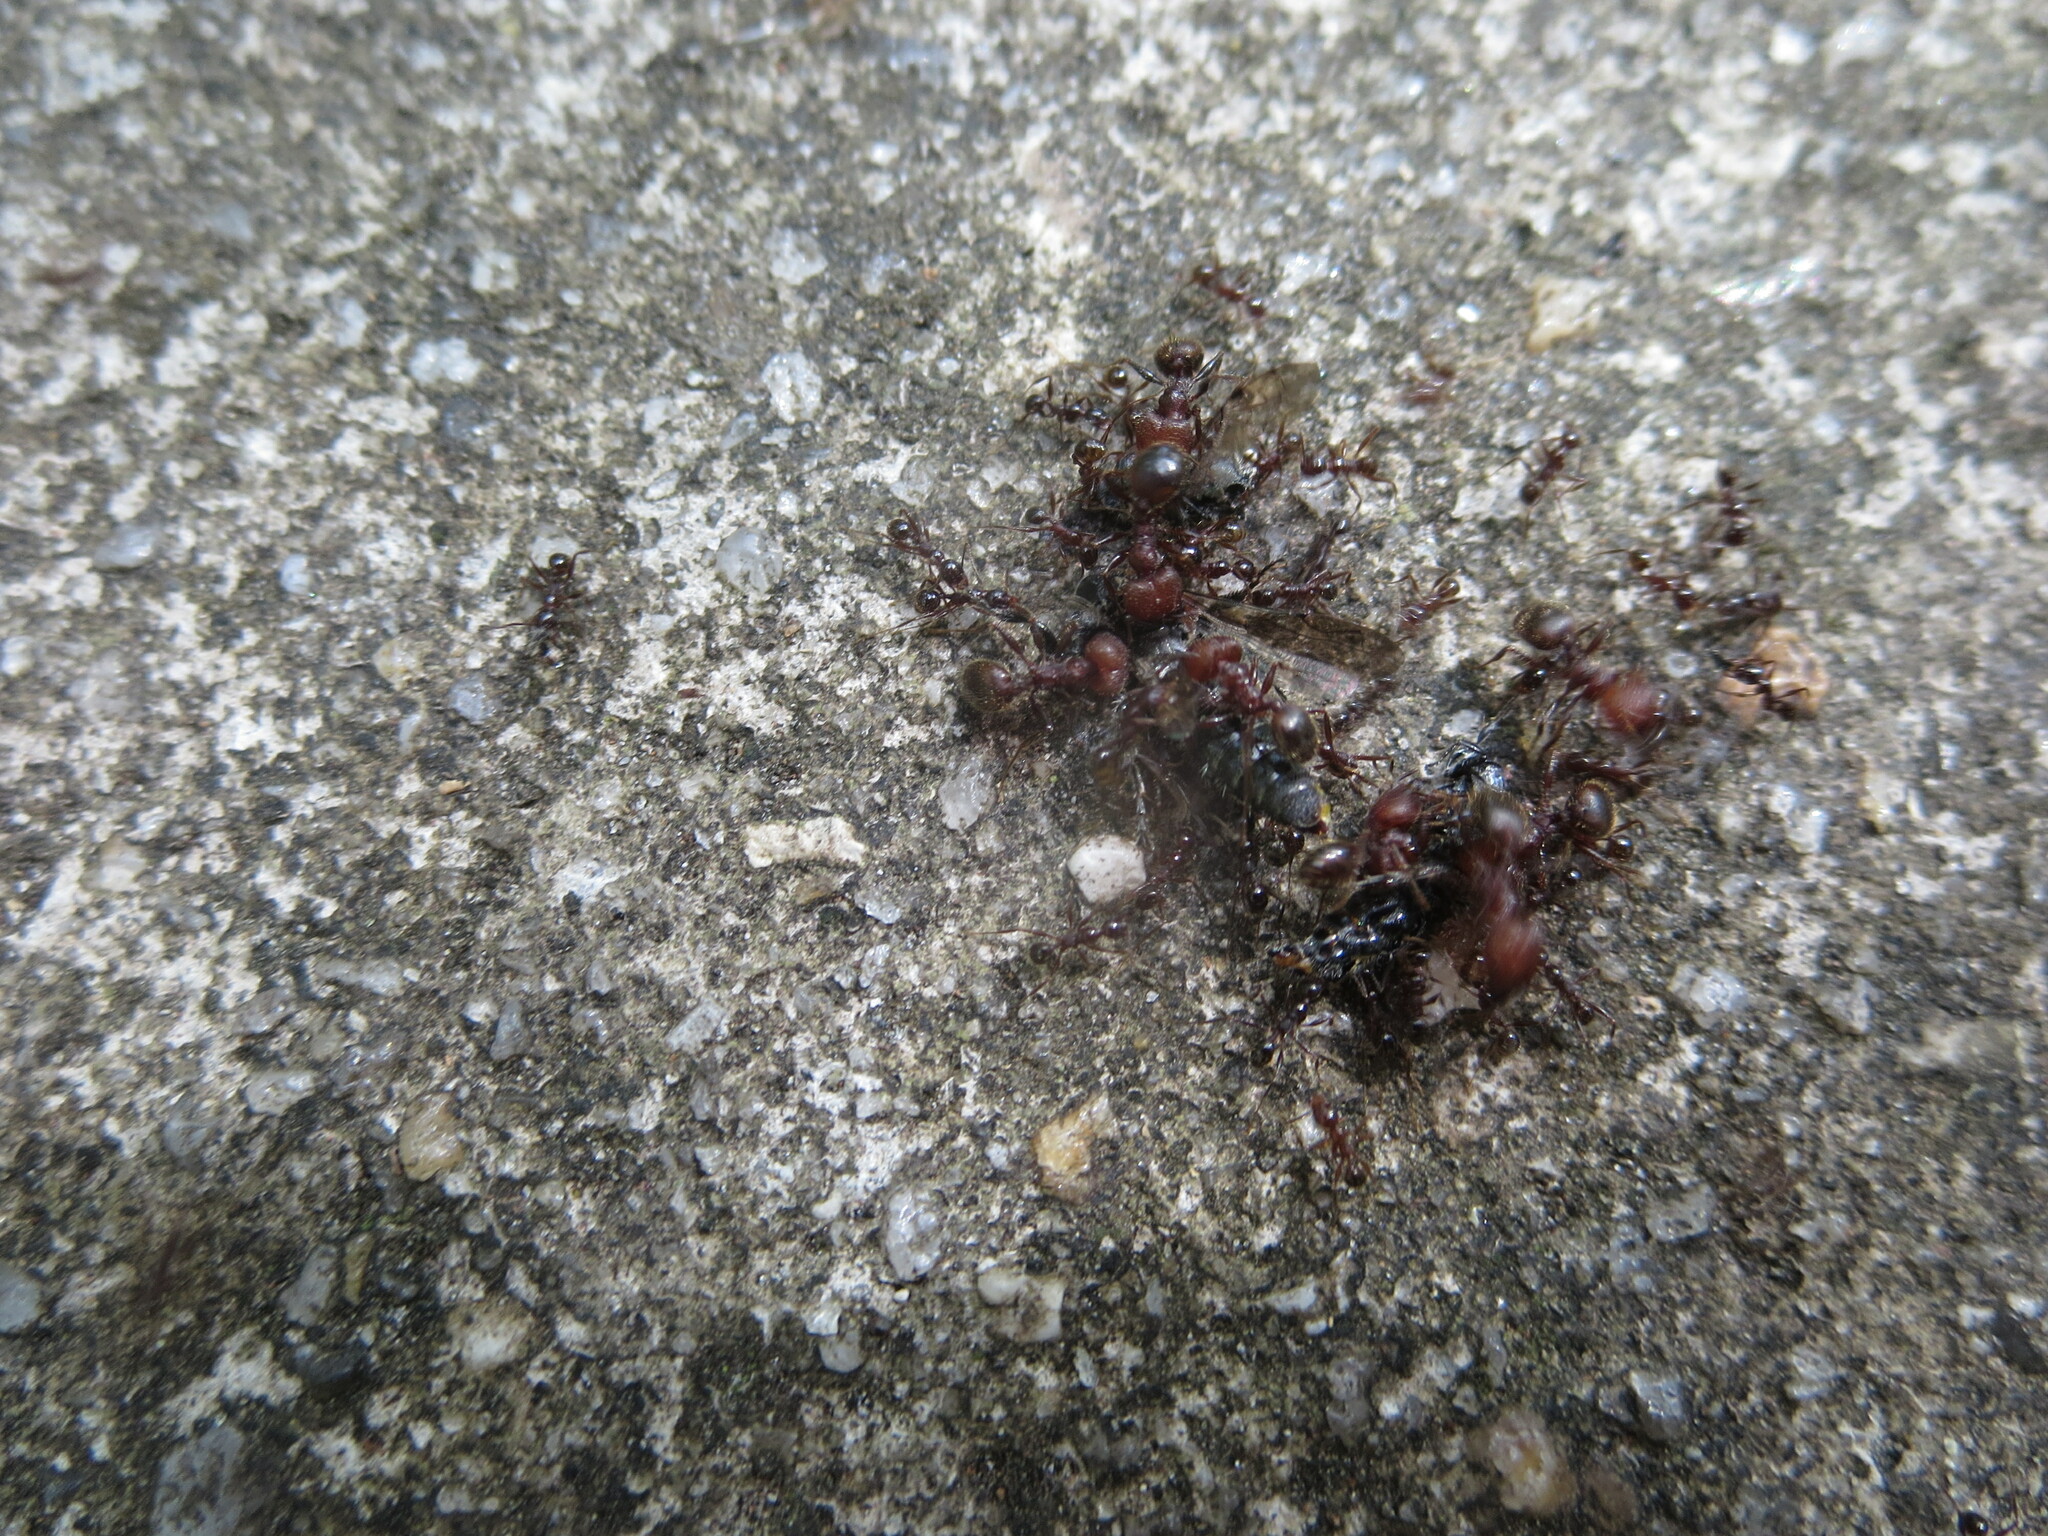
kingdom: Animalia
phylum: Arthropoda
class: Insecta
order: Hymenoptera
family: Formicidae
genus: Pheidole
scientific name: Pheidole obscurithorax
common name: Obscure big-headed ant
